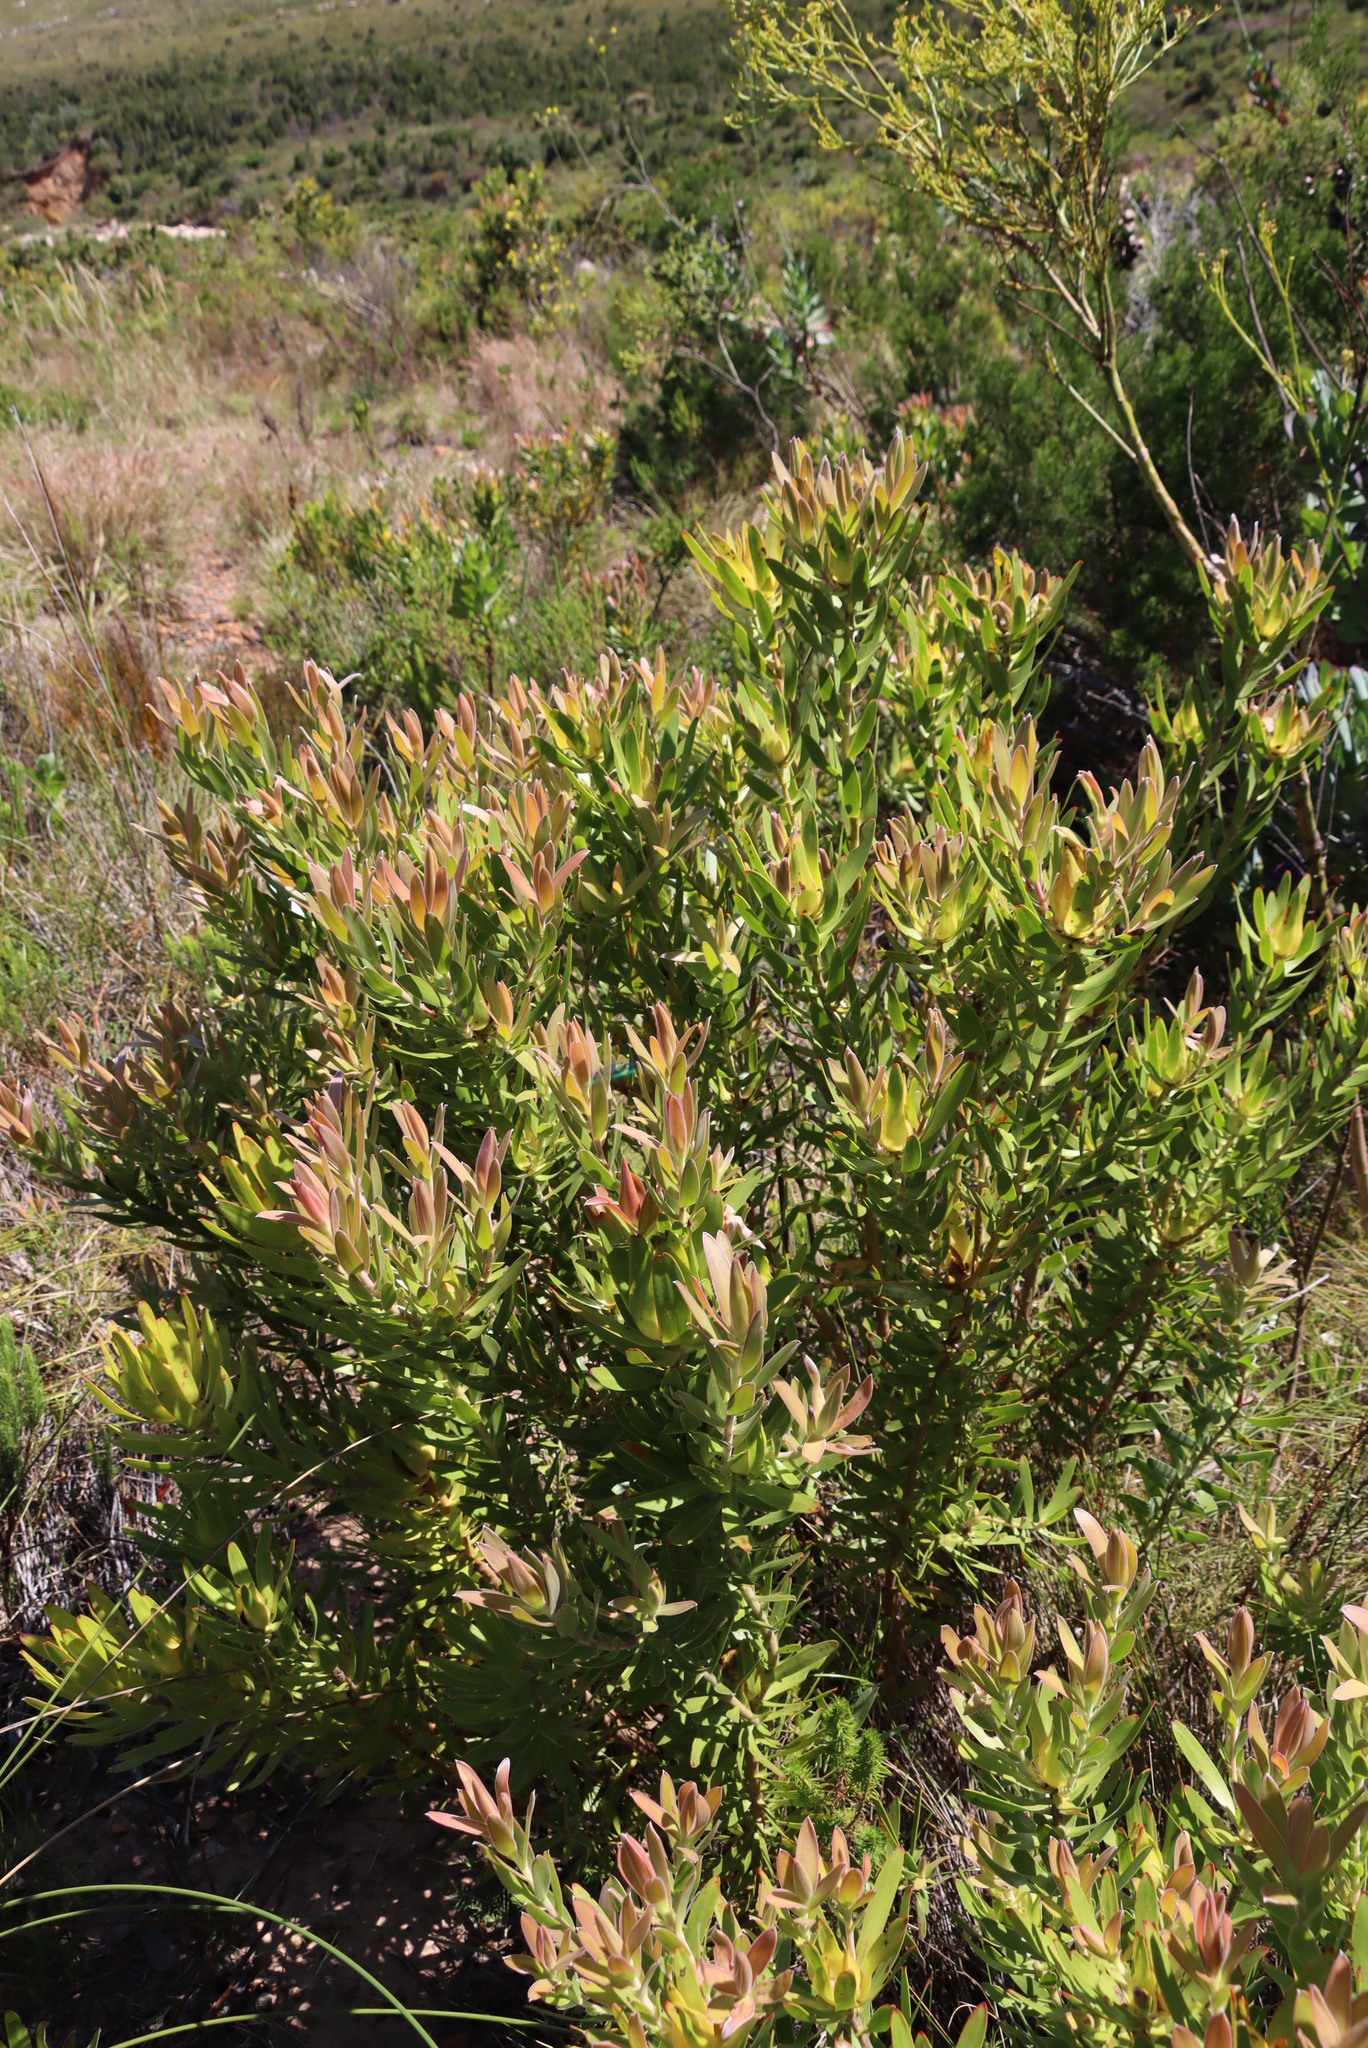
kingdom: Plantae
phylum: Tracheophyta
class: Magnoliopsida
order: Proteales
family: Proteaceae
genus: Leucadendron
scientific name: Leucadendron laureolum
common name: Golden sunshinebush
